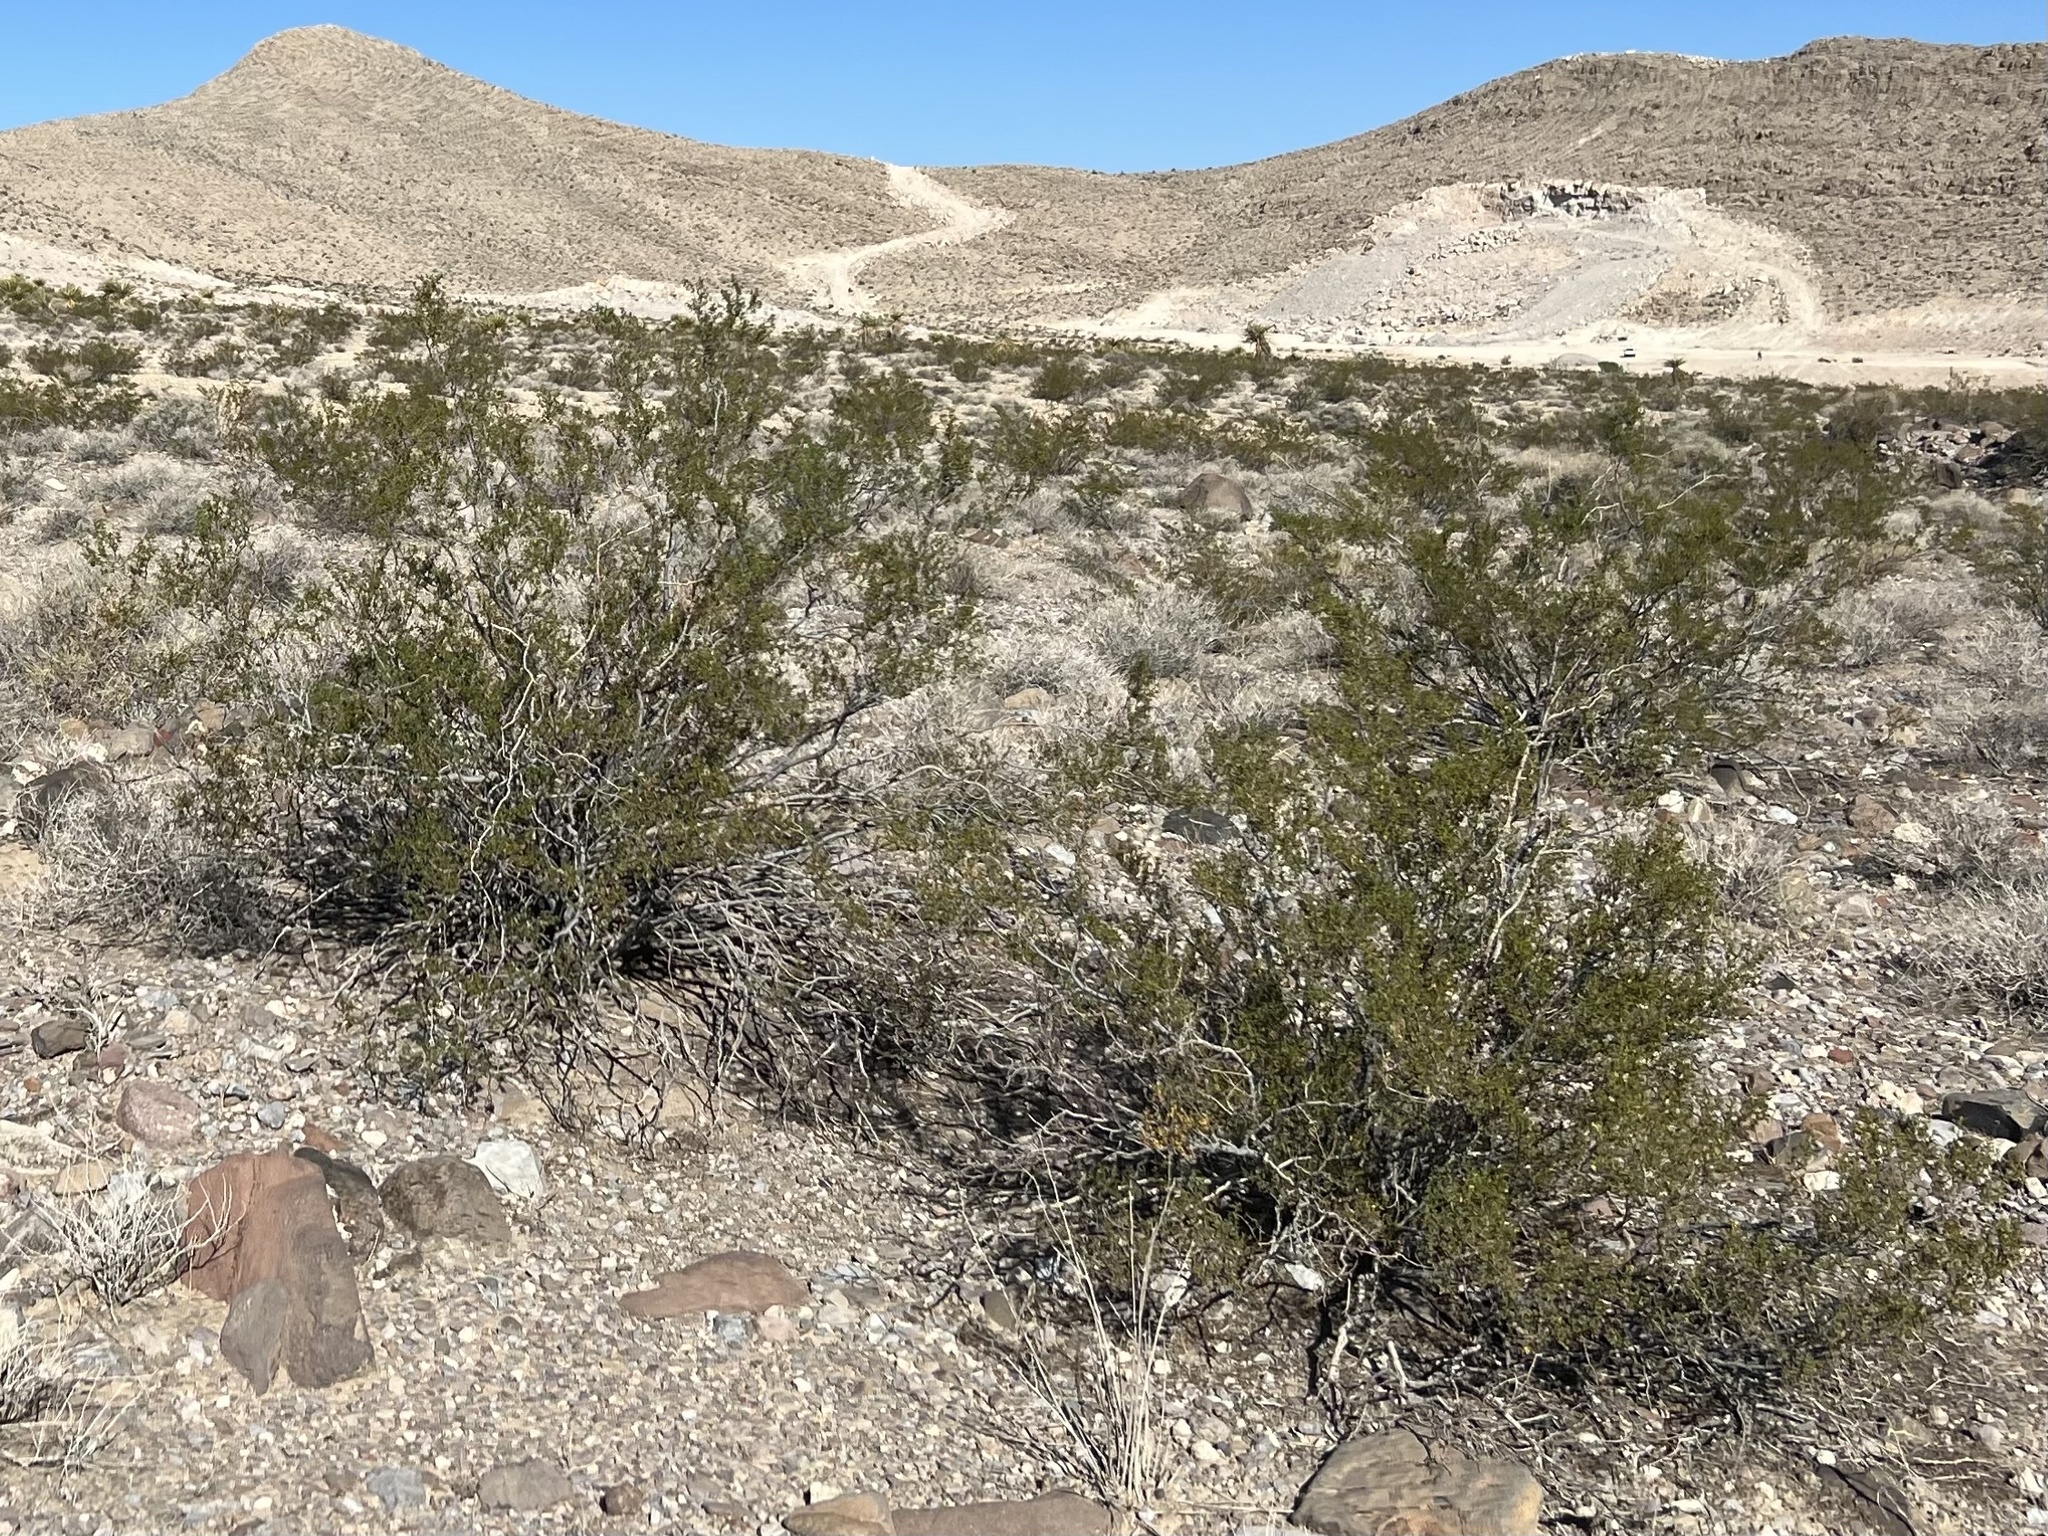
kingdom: Plantae
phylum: Tracheophyta
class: Magnoliopsida
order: Zygophyllales
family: Zygophyllaceae
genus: Larrea
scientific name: Larrea tridentata
